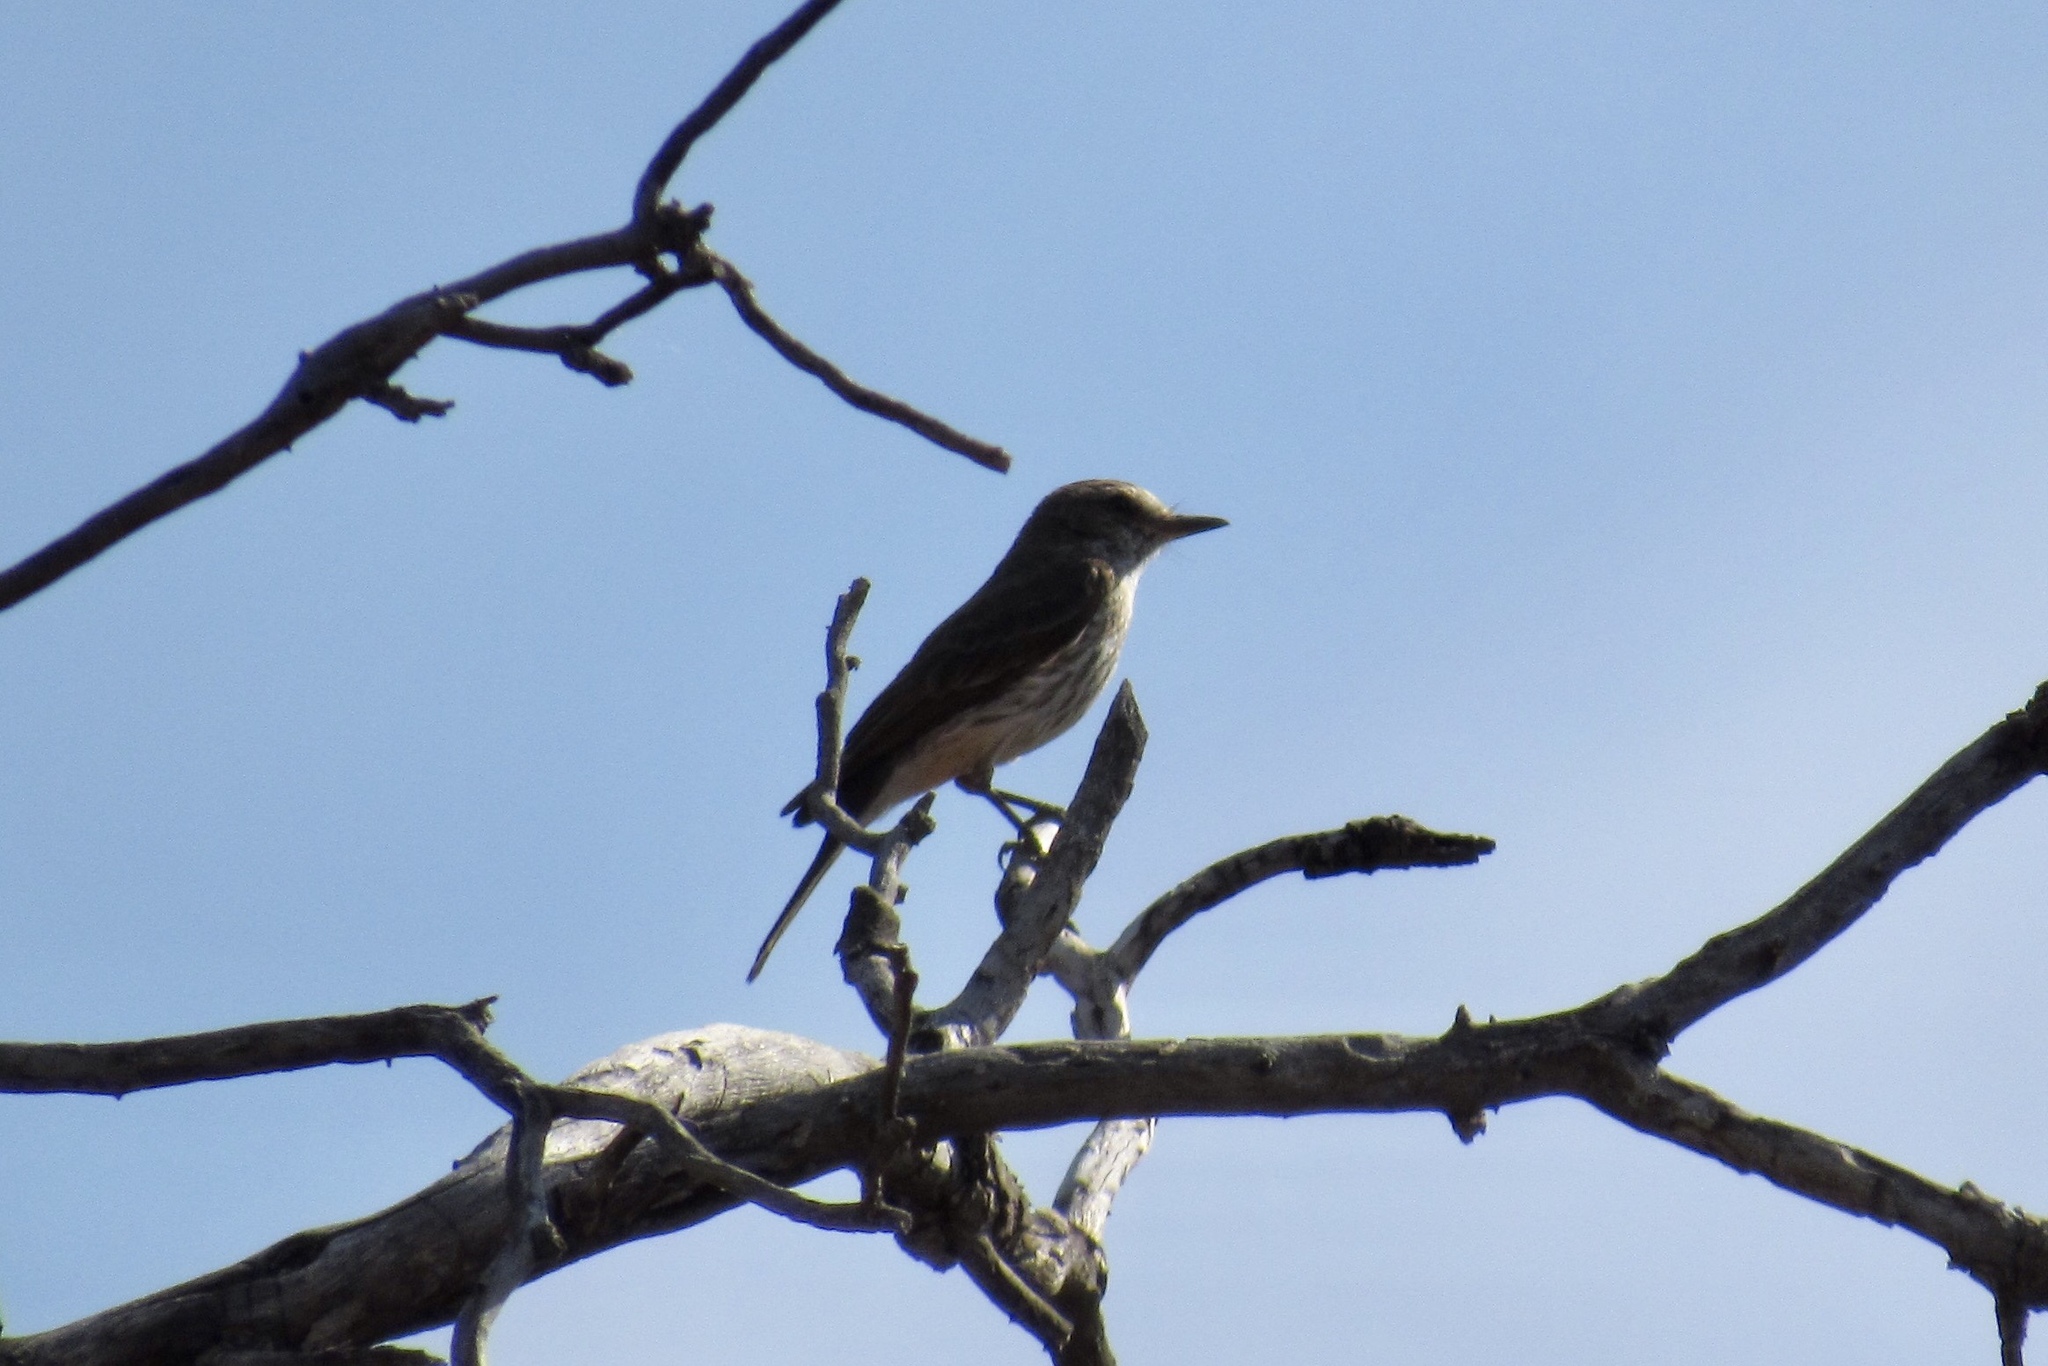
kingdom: Animalia
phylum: Chordata
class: Aves
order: Passeriformes
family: Tyrannidae
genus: Pyrocephalus
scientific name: Pyrocephalus rubinus
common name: Vermilion flycatcher
